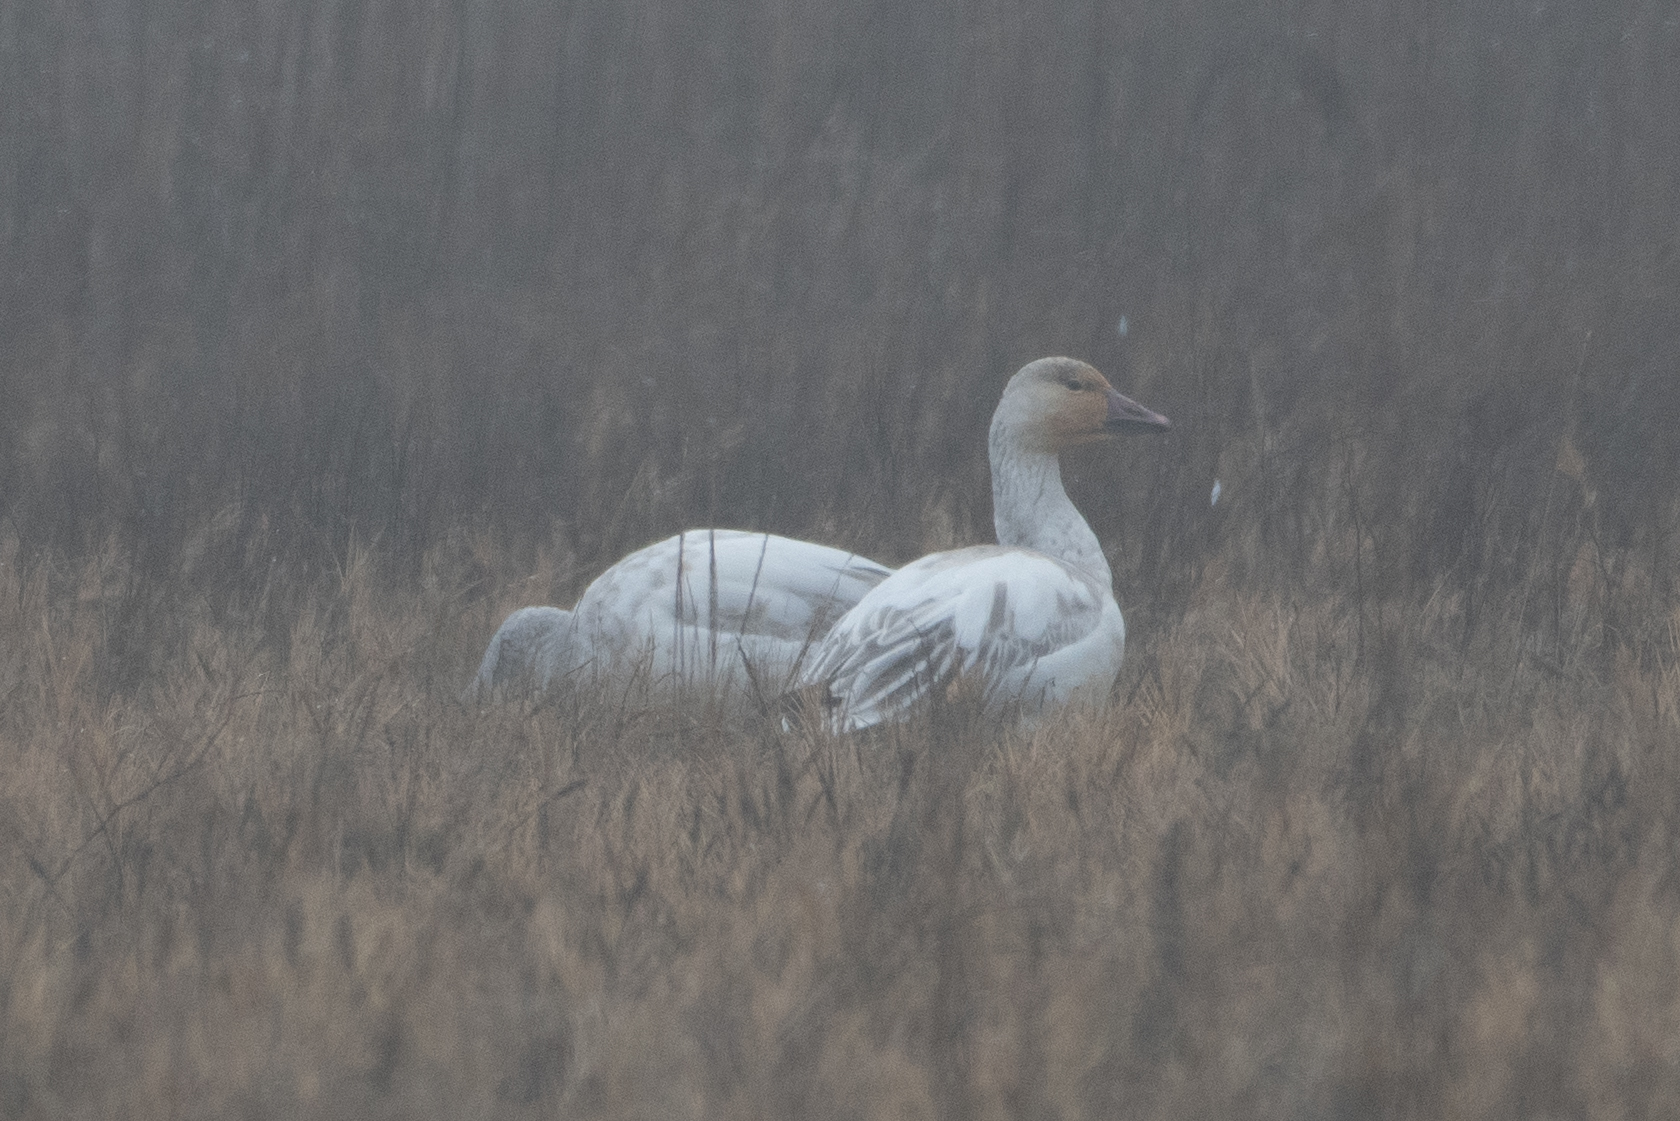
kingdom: Animalia
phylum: Chordata
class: Aves
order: Anseriformes
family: Anatidae
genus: Anser
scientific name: Anser caerulescens
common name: Snow goose
